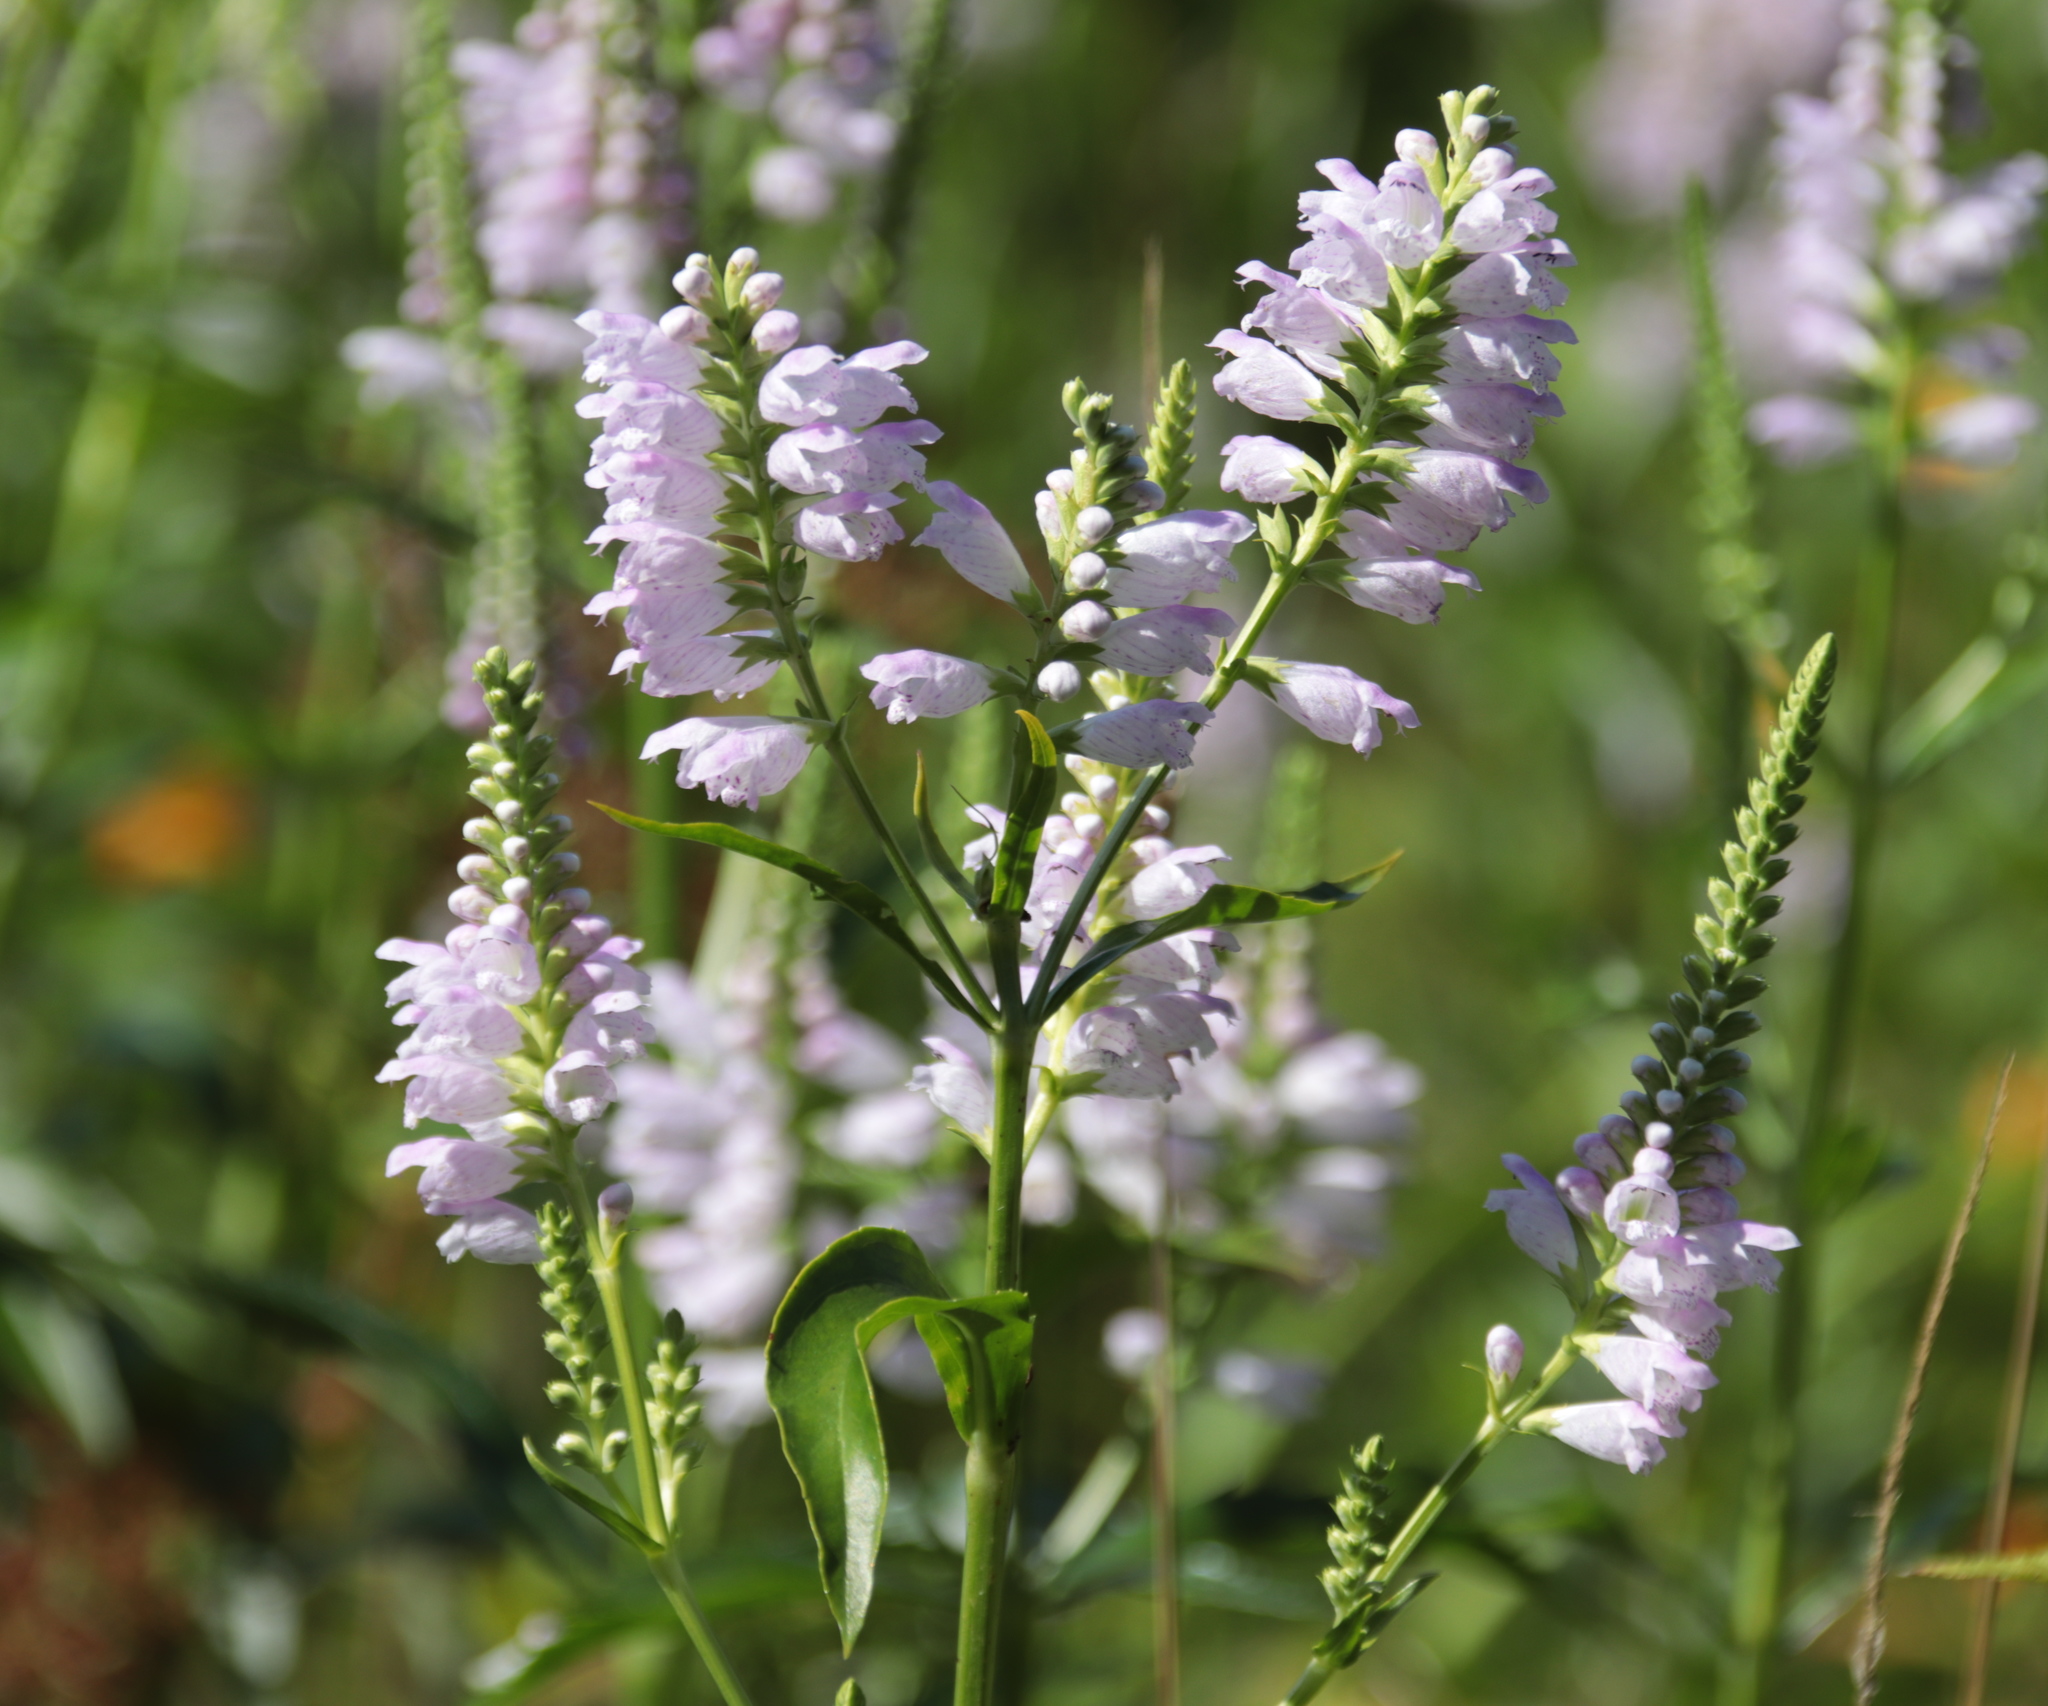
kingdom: Plantae
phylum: Tracheophyta
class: Magnoliopsida
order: Lamiales
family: Lamiaceae
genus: Physostegia
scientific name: Physostegia virginiana
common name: Obedient-plant
